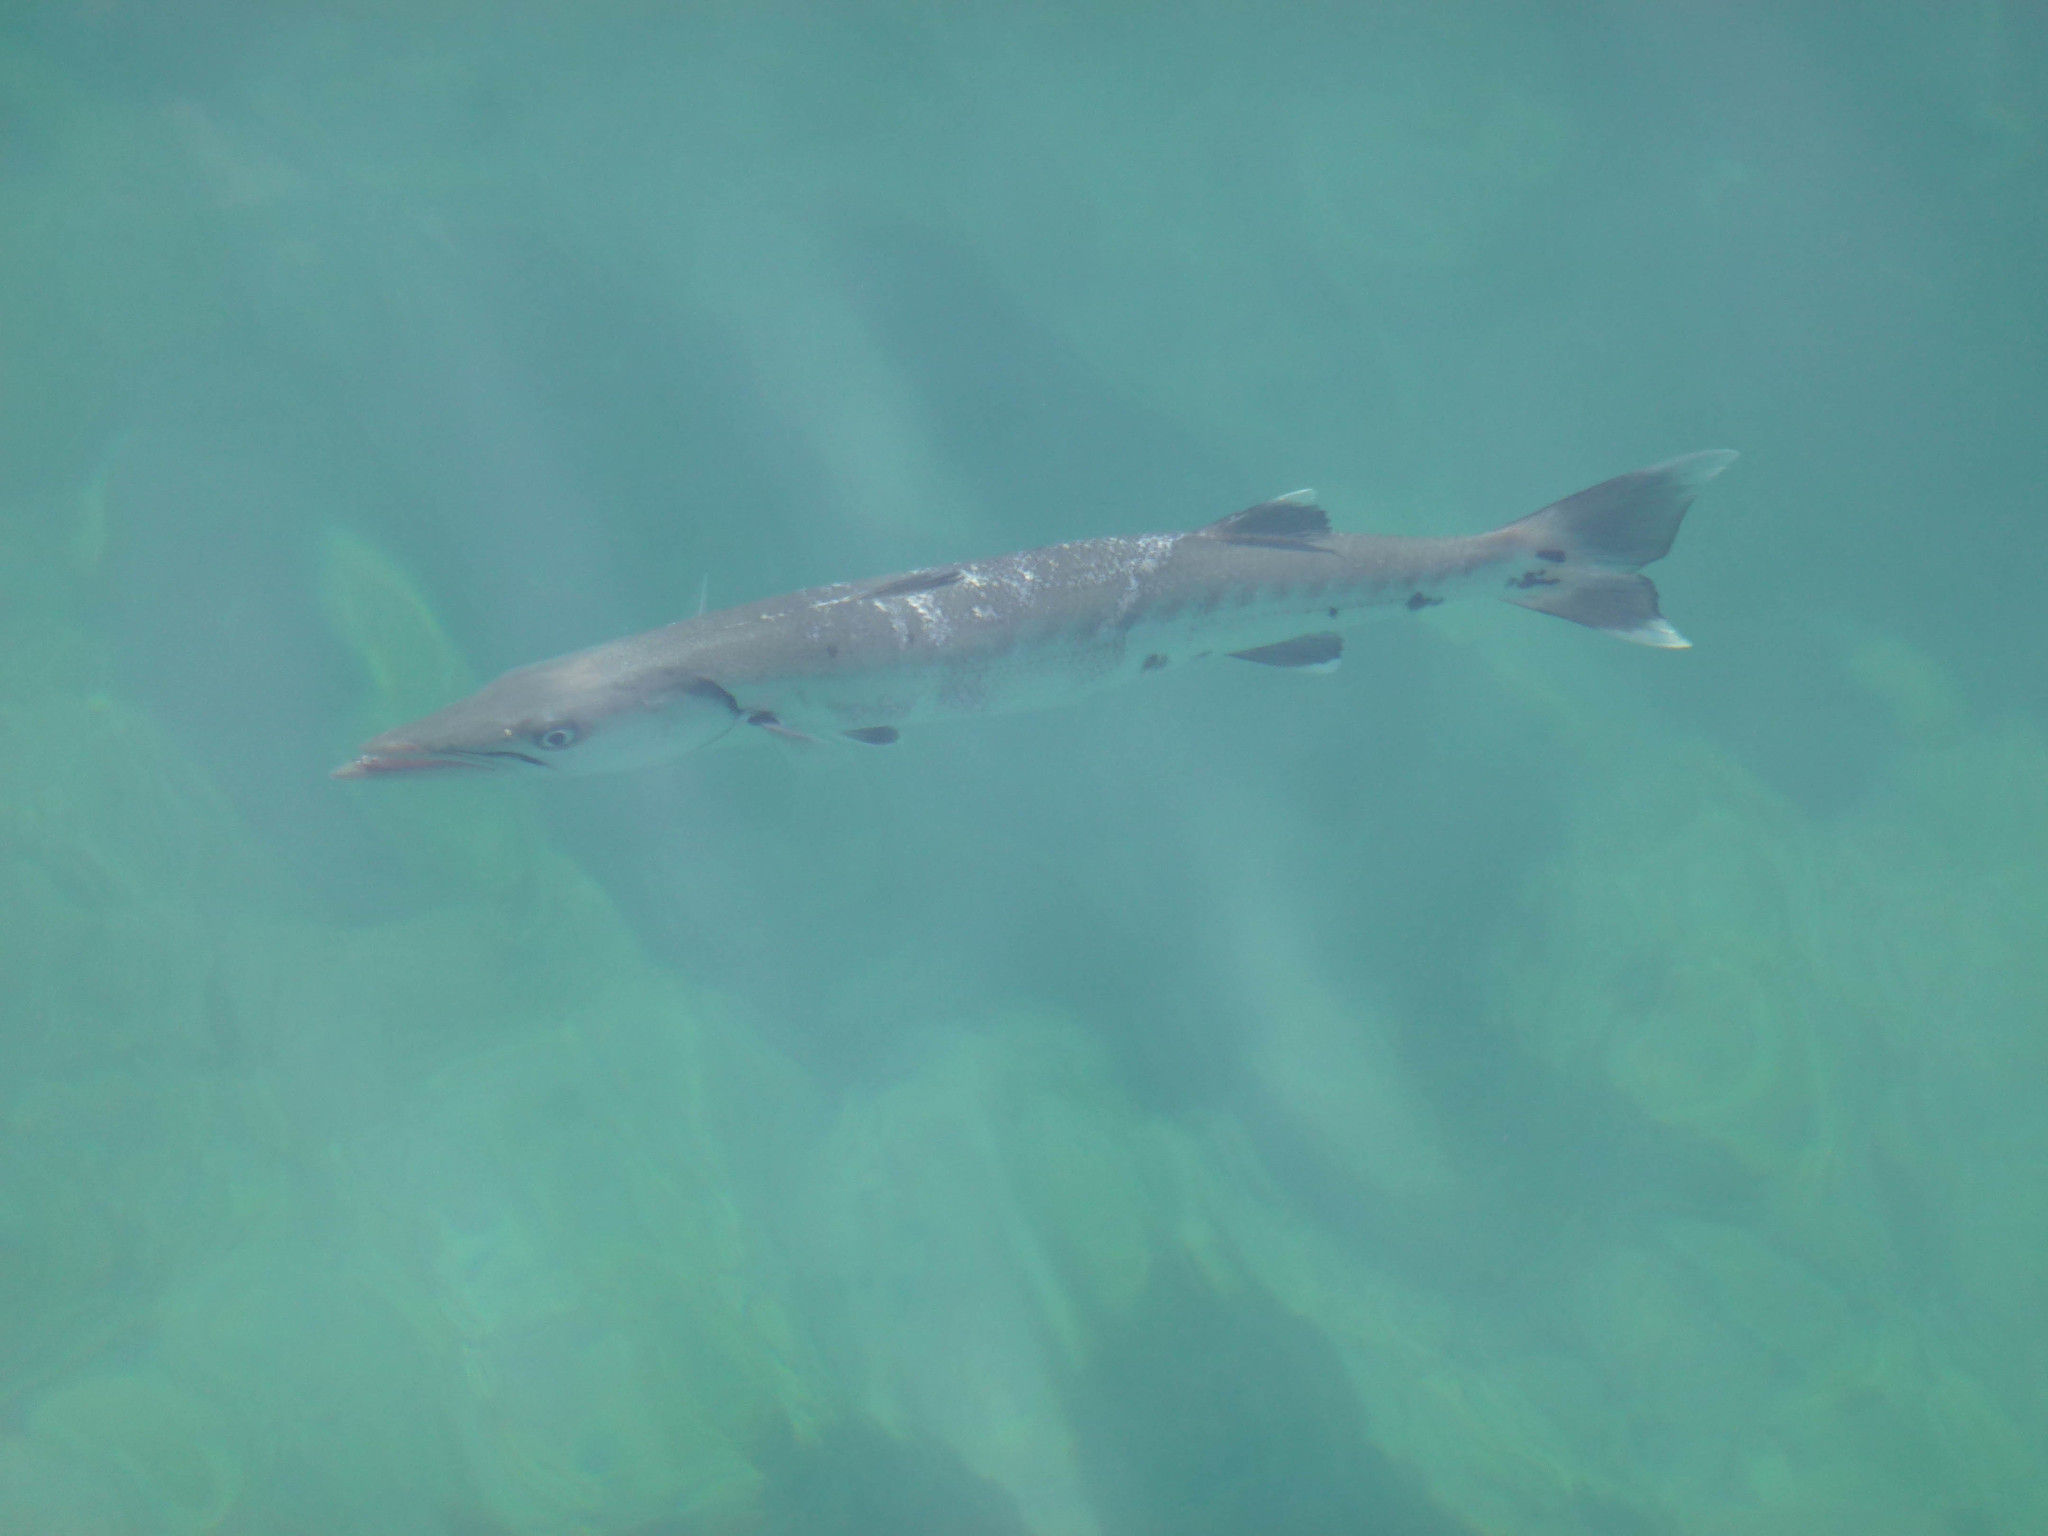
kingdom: Animalia
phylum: Chordata
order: Perciformes
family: Sphyraenidae
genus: Sphyraena
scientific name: Sphyraena barracuda
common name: Great barracuda
